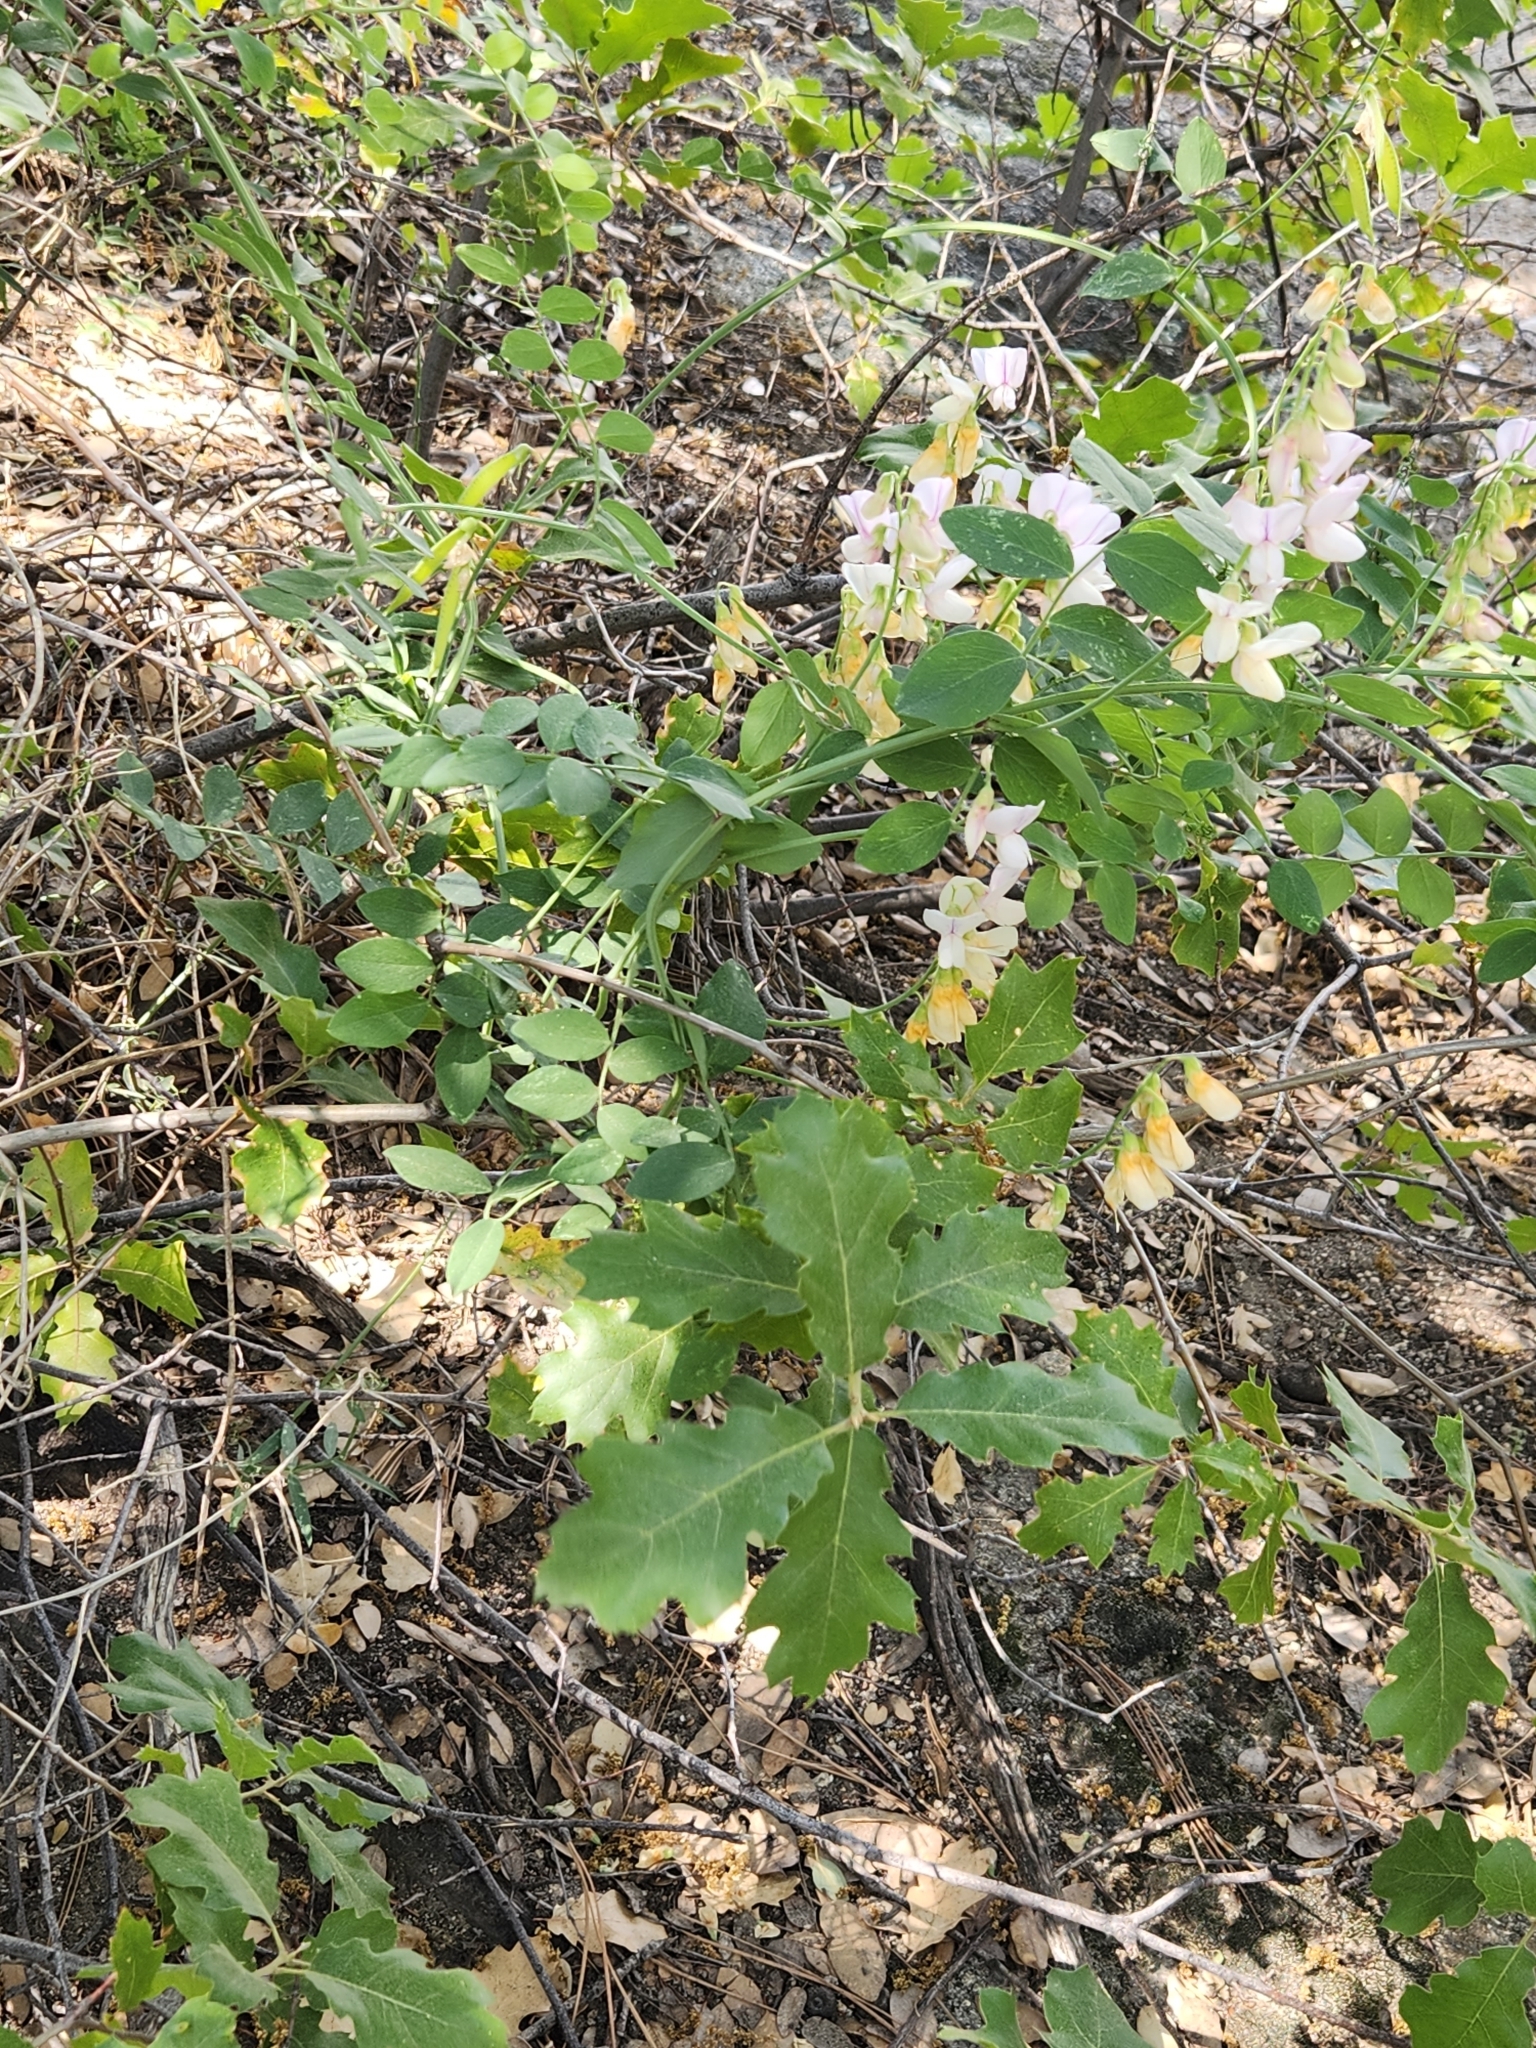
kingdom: Plantae
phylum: Tracheophyta
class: Magnoliopsida
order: Fabales
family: Fabaceae
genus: Lathyrus
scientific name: Lathyrus vestitus
